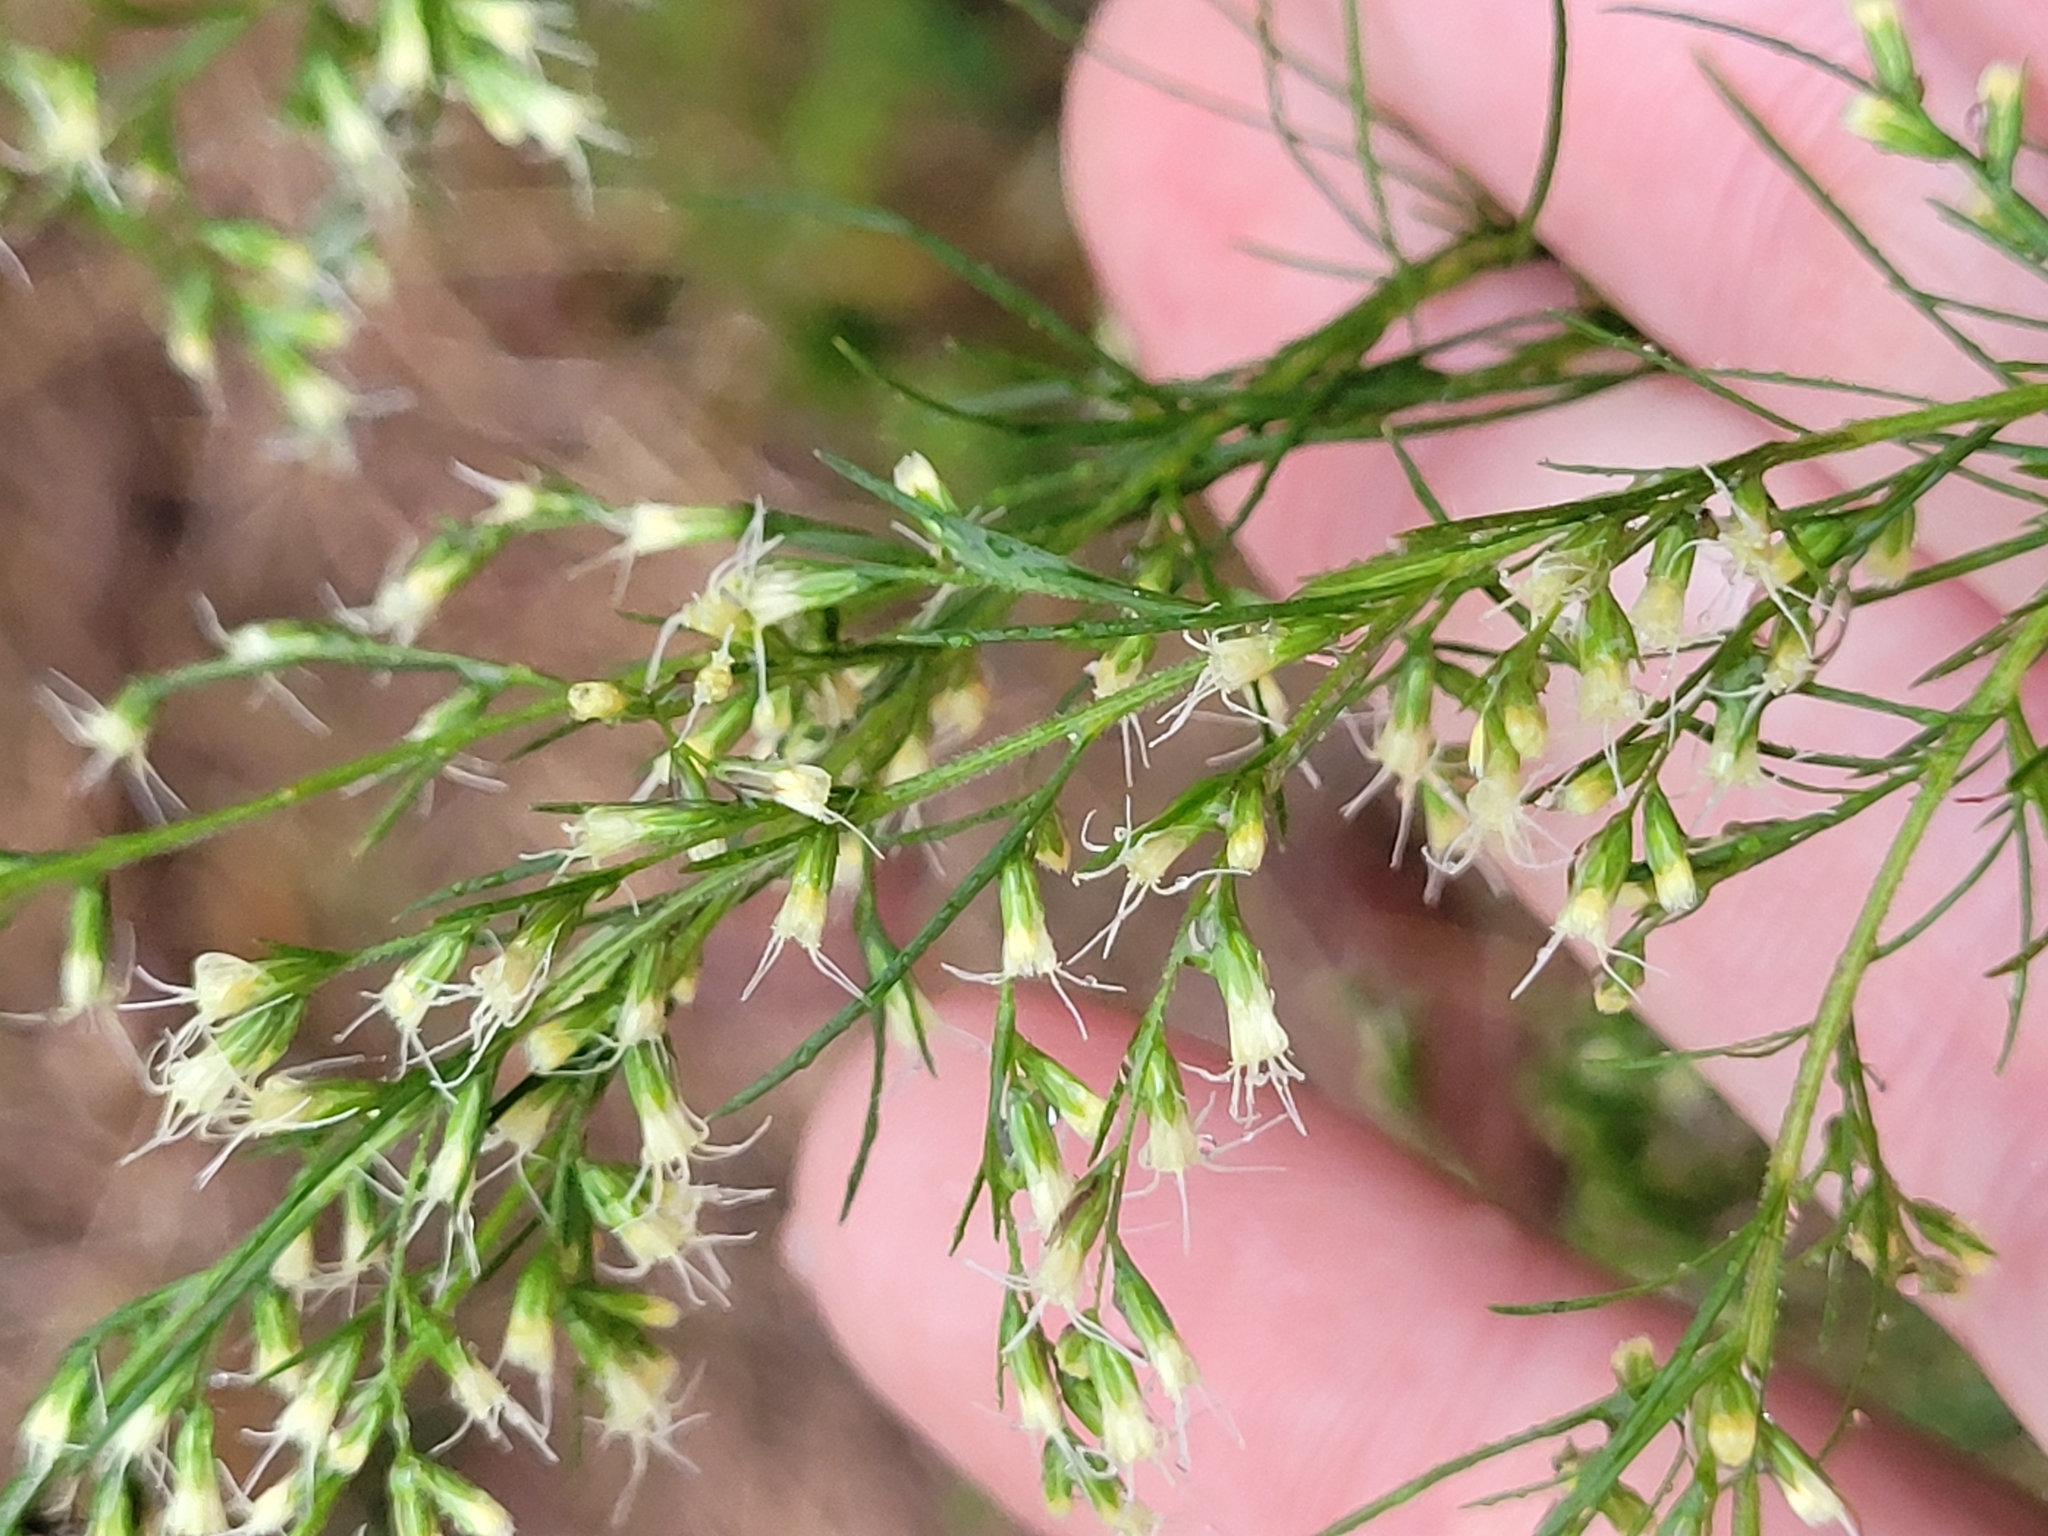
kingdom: Plantae
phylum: Tracheophyta
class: Magnoliopsida
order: Asterales
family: Asteraceae
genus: Eupatorium
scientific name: Eupatorium capillifolium
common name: Dog-fennel
